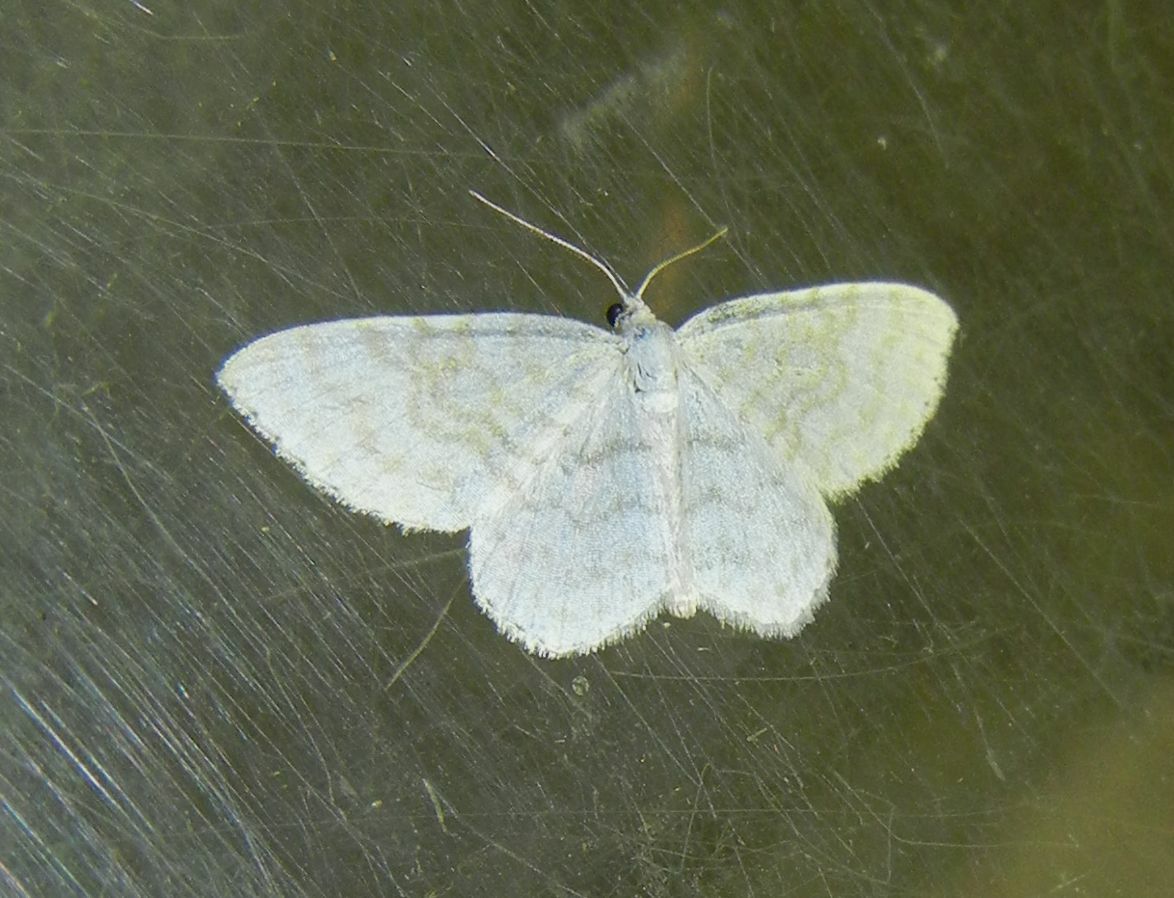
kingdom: Animalia
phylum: Arthropoda
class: Insecta
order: Lepidoptera
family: Geometridae
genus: Asthena
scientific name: Asthena albulata
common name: Small white wave
